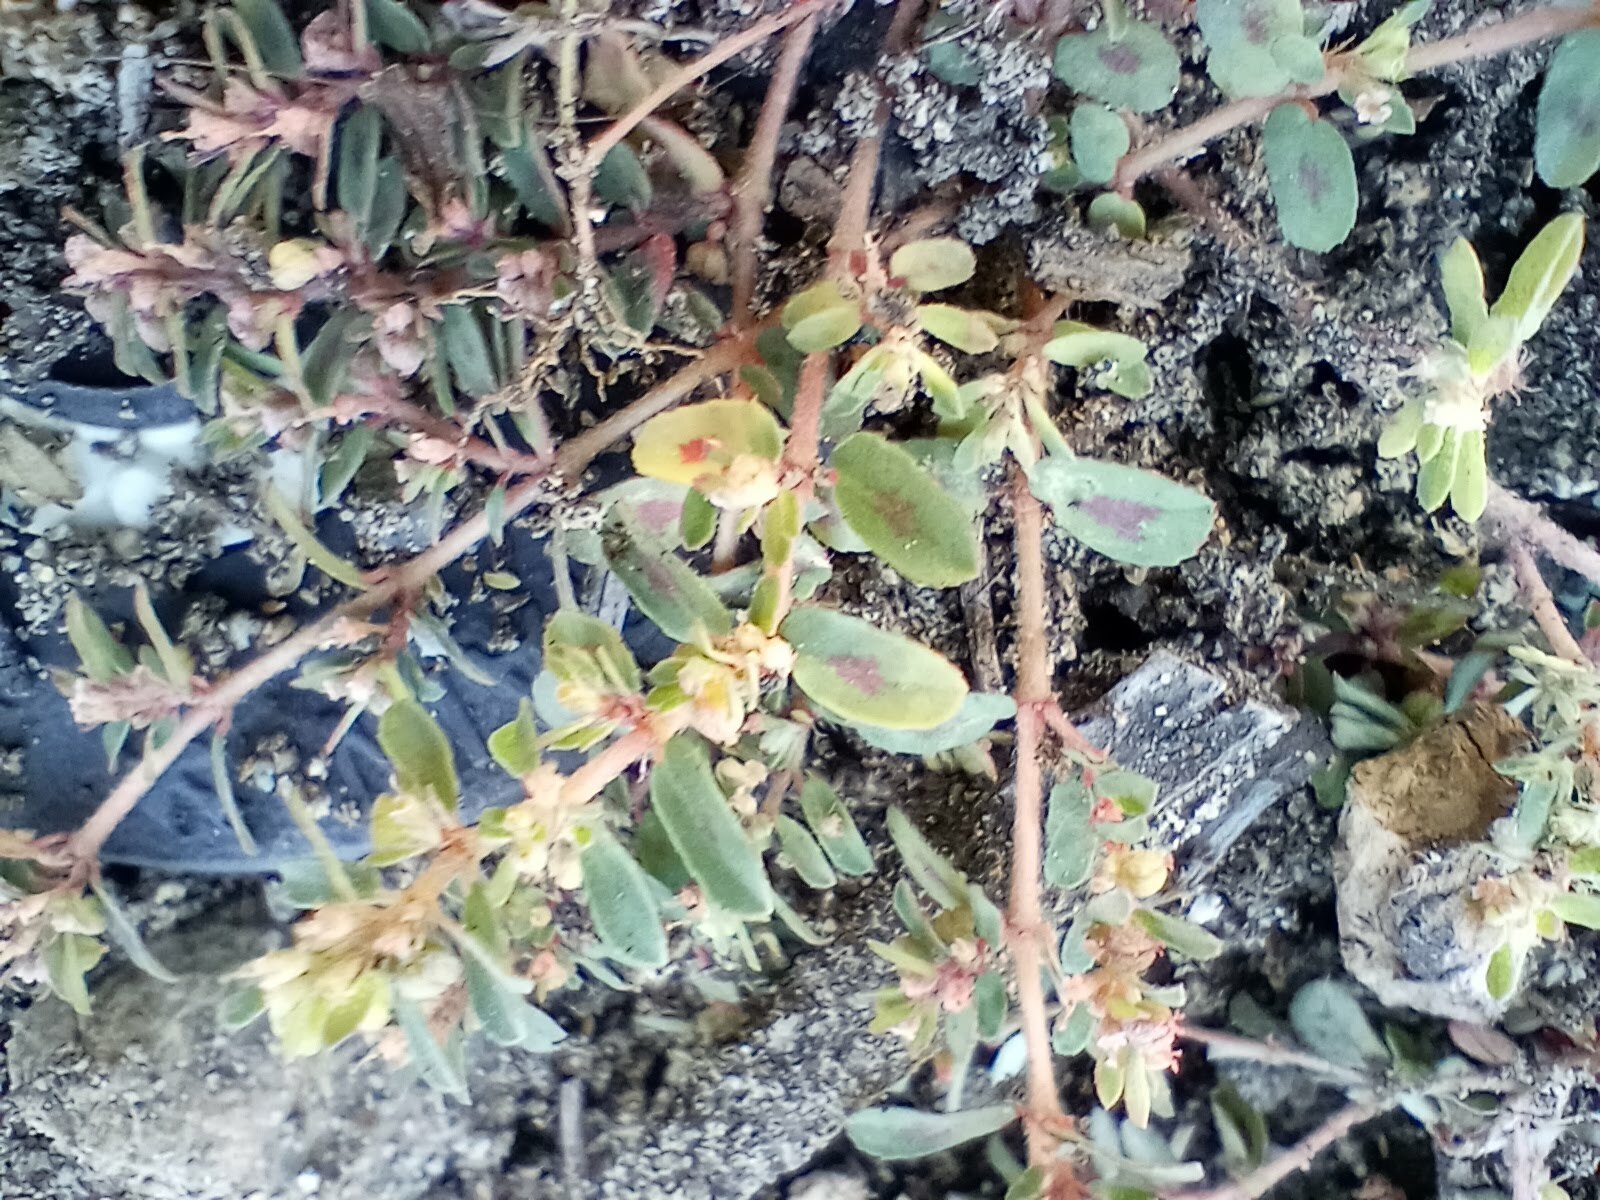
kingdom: Plantae
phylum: Tracheophyta
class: Magnoliopsida
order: Malpighiales
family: Euphorbiaceae
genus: Euphorbia
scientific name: Euphorbia maculata
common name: Spotted spurge
